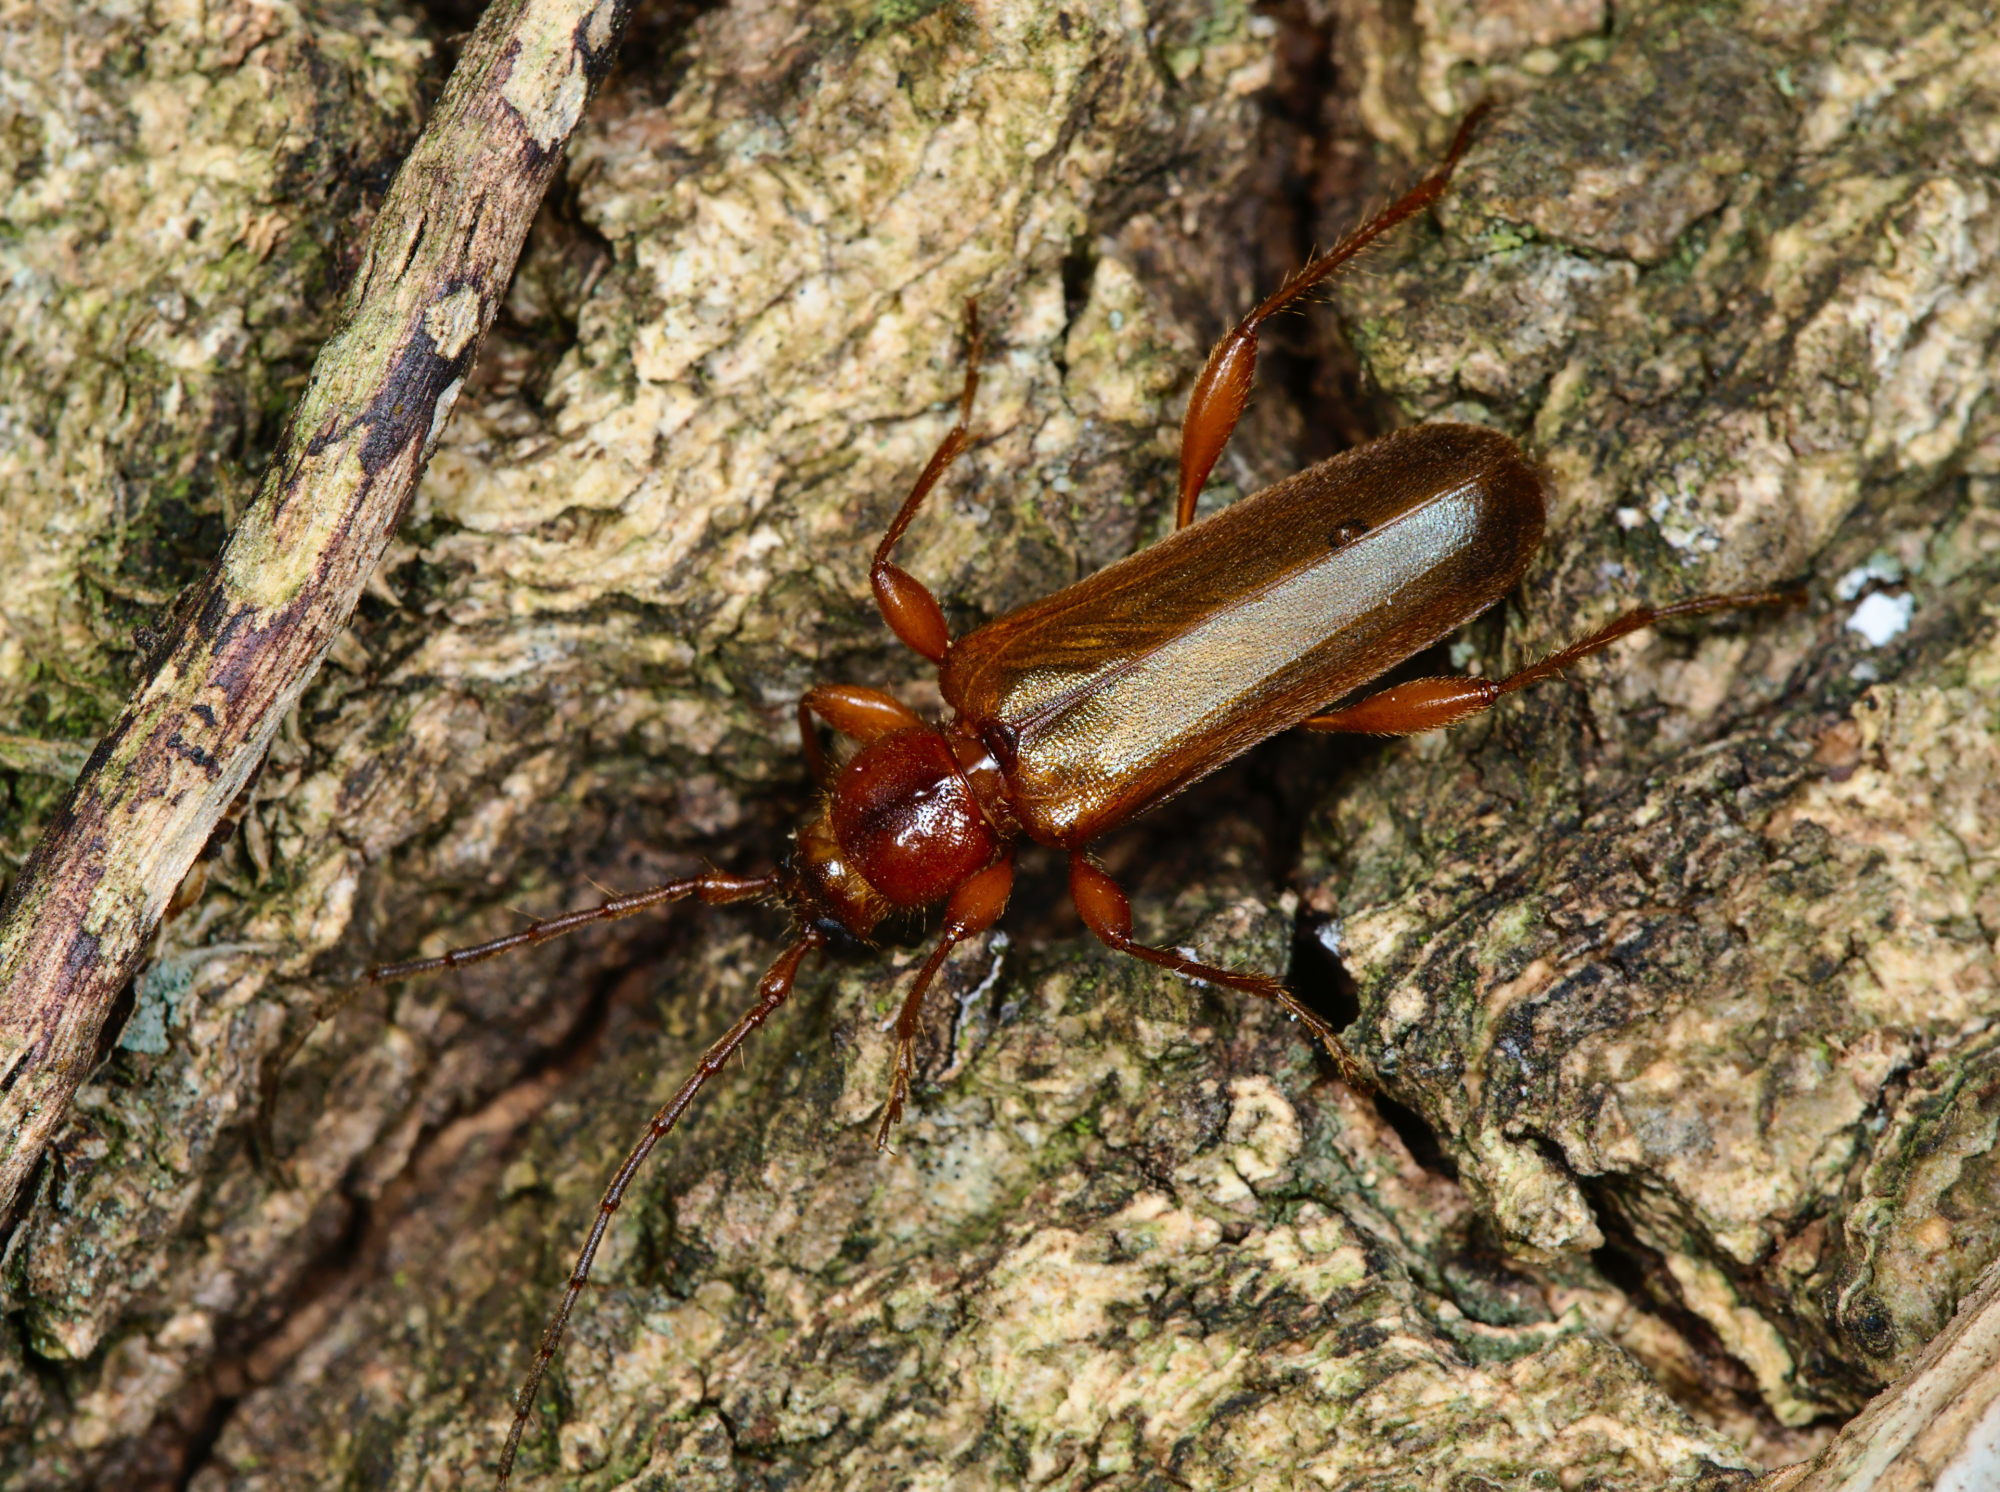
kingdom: Animalia
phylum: Arthropoda
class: Insecta
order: Coleoptera
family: Cerambycidae
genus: Phymatodes
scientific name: Phymatodes testaceus
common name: Long-horned beetle
